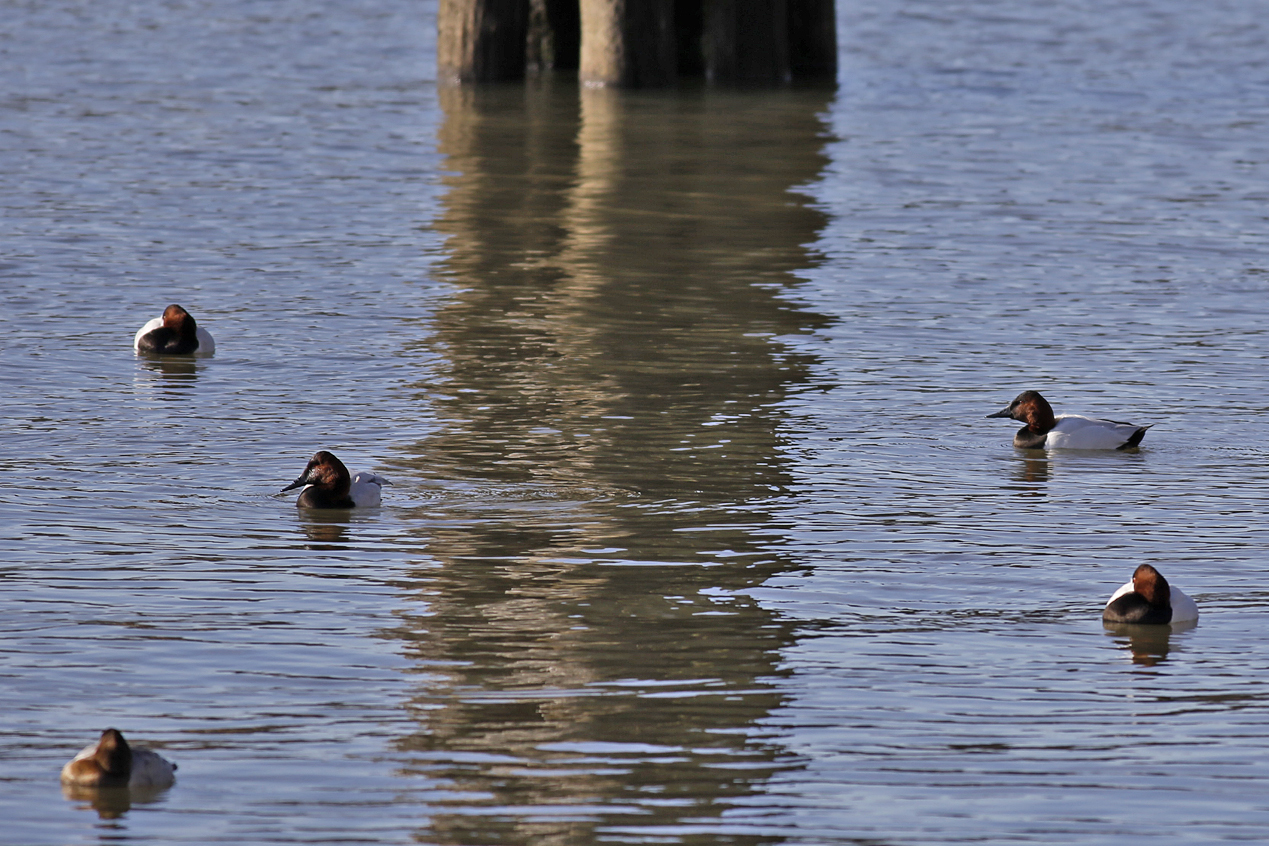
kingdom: Animalia
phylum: Chordata
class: Aves
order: Anseriformes
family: Anatidae
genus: Aythya
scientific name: Aythya valisineria
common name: Canvasback
